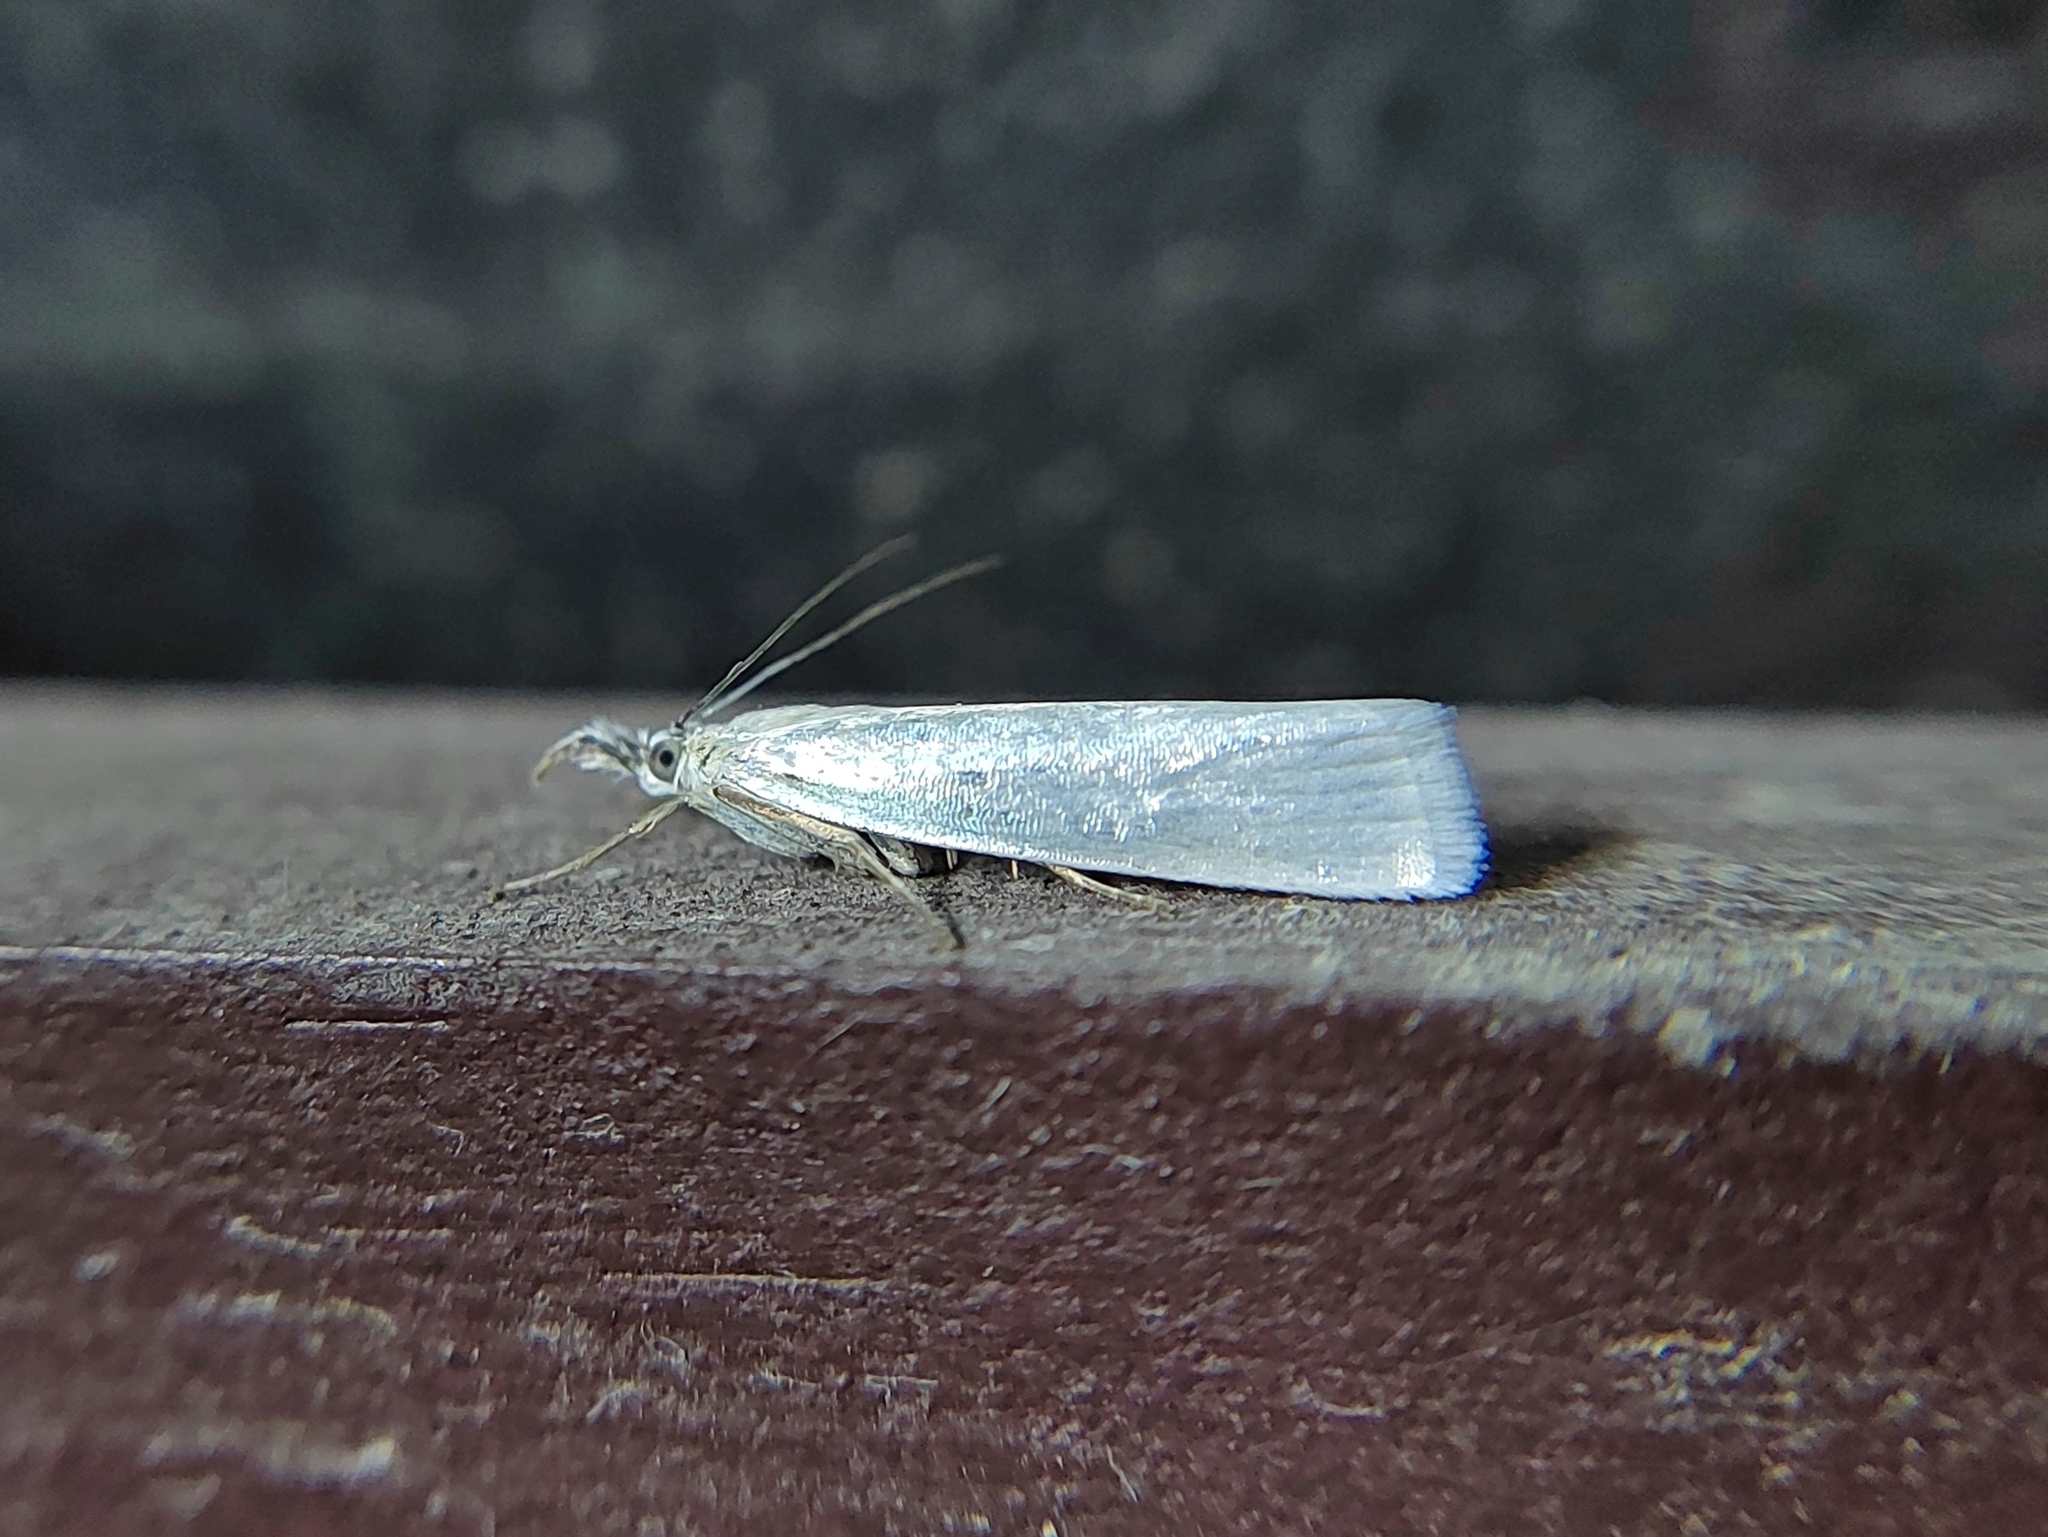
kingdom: Animalia
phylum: Arthropoda
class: Insecta
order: Lepidoptera
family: Crambidae
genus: Crambus
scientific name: Crambus perlellus
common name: Yellow satin veneer
